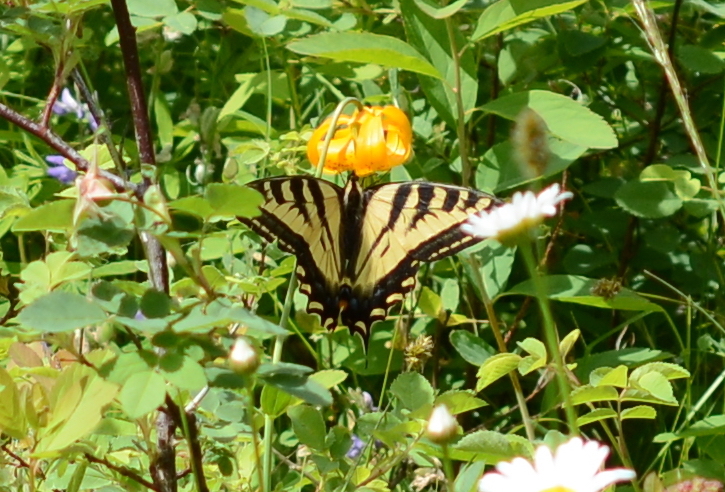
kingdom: Animalia
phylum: Arthropoda
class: Insecta
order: Lepidoptera
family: Papilionidae
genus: Papilio
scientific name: Papilio rutulus
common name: Western tiger swallowtail
